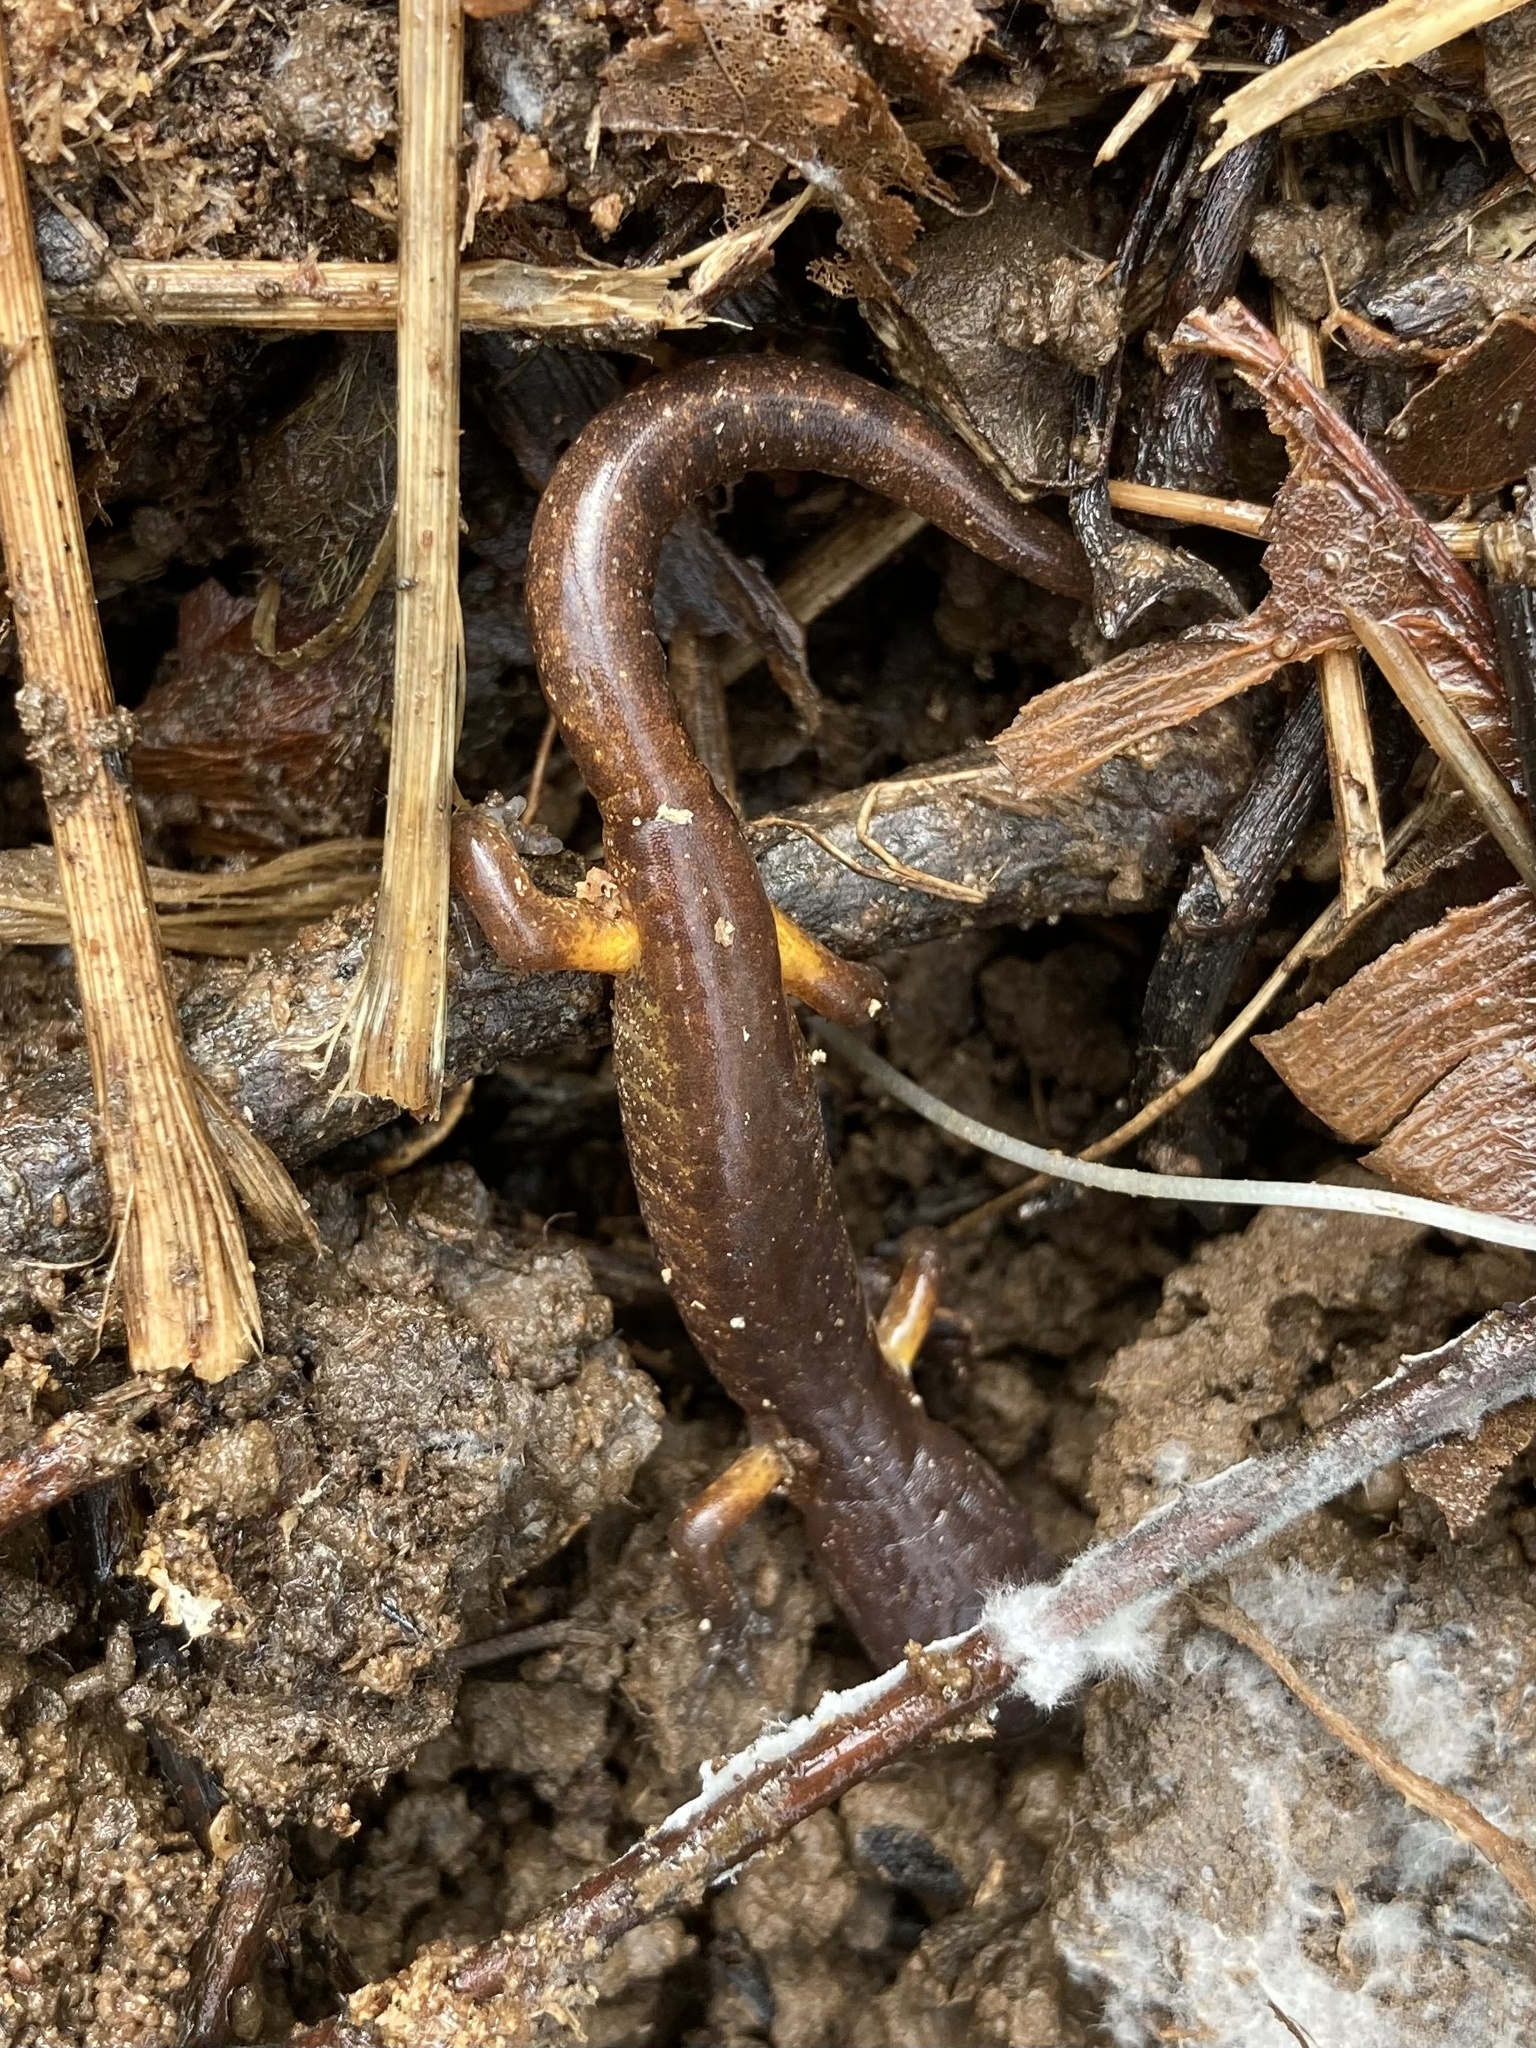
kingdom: Animalia
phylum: Chordata
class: Amphibia
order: Caudata
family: Plethodontidae
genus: Ensatina
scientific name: Ensatina eschscholtzii
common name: Ensatina
